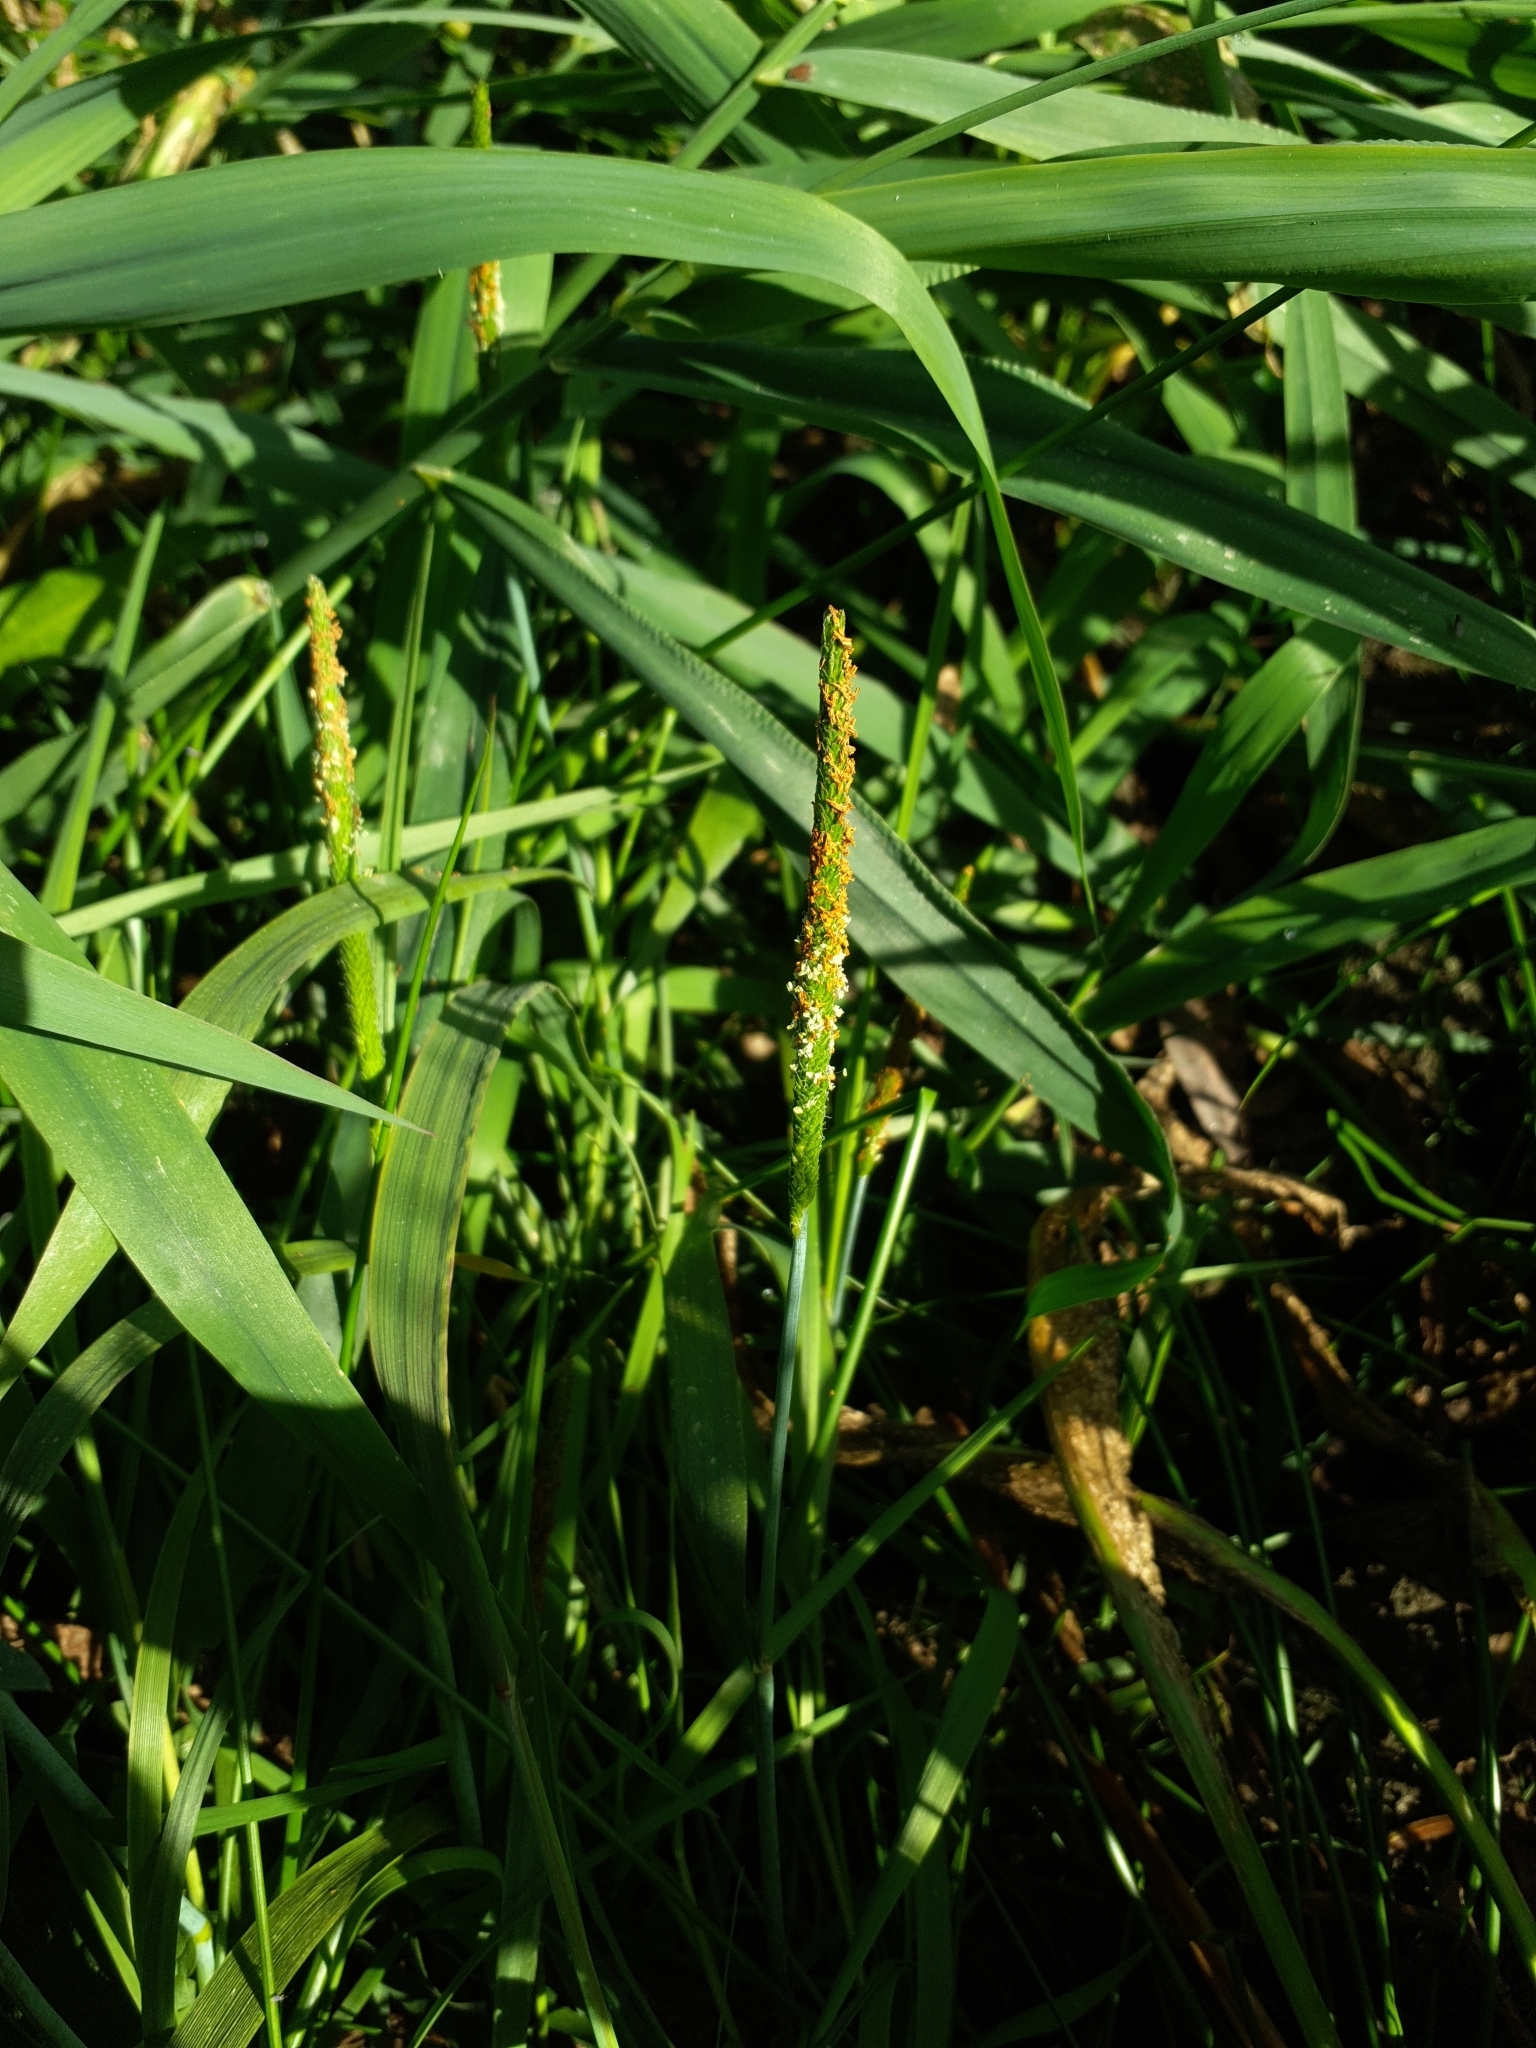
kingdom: Plantae
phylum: Tracheophyta
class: Liliopsida
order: Poales
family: Poaceae
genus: Alopecurus
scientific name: Alopecurus aequalis
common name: Orange foxtail
